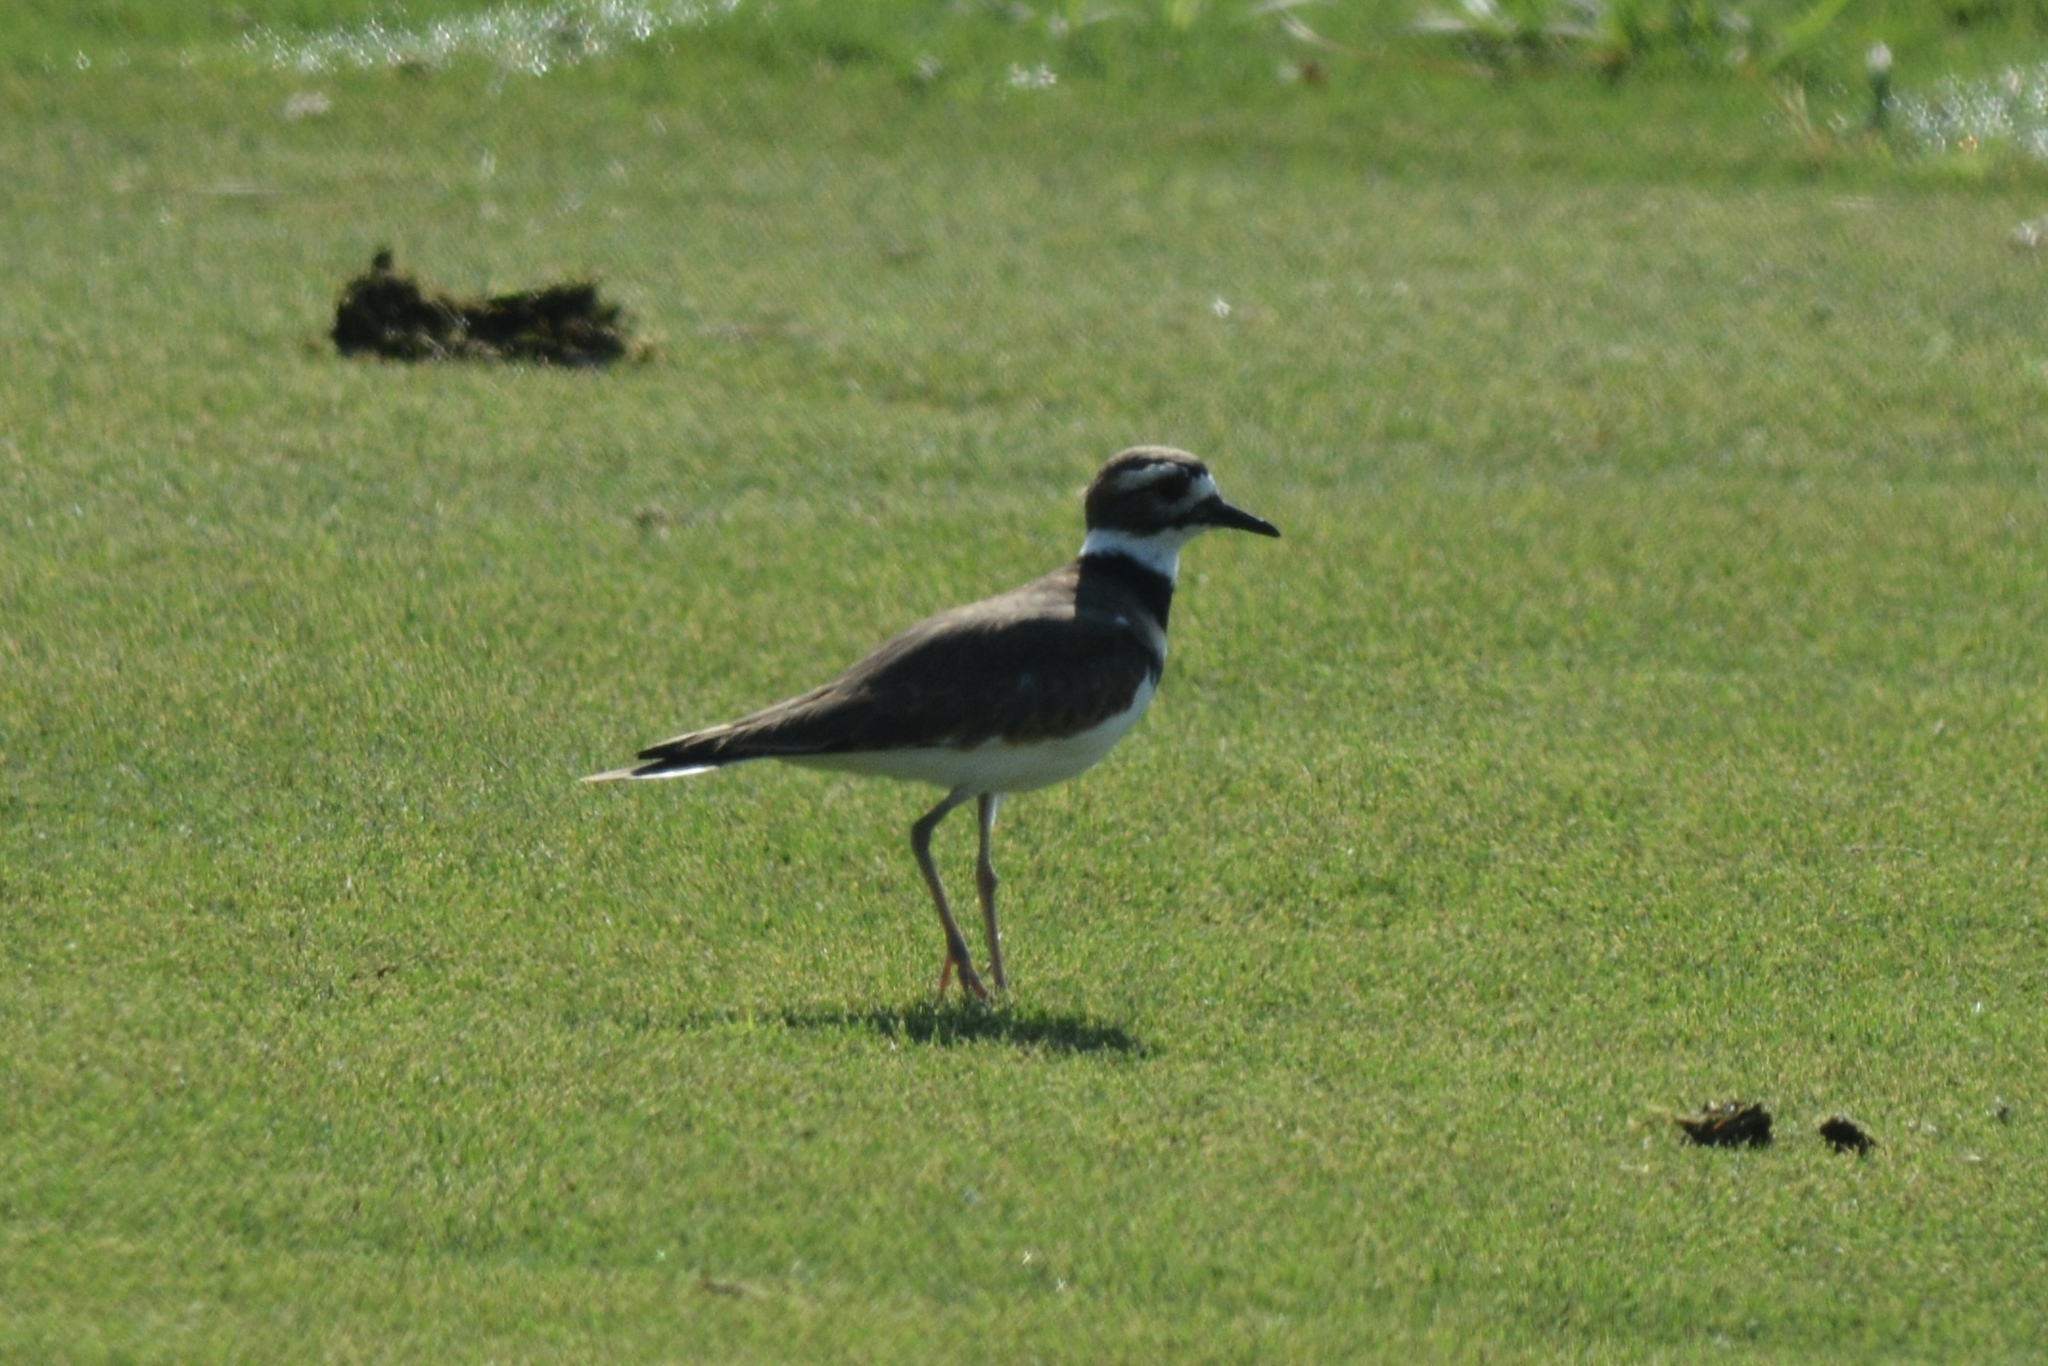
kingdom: Animalia
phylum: Chordata
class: Aves
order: Charadriiformes
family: Charadriidae
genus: Charadrius
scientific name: Charadrius vociferus
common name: Killdeer
